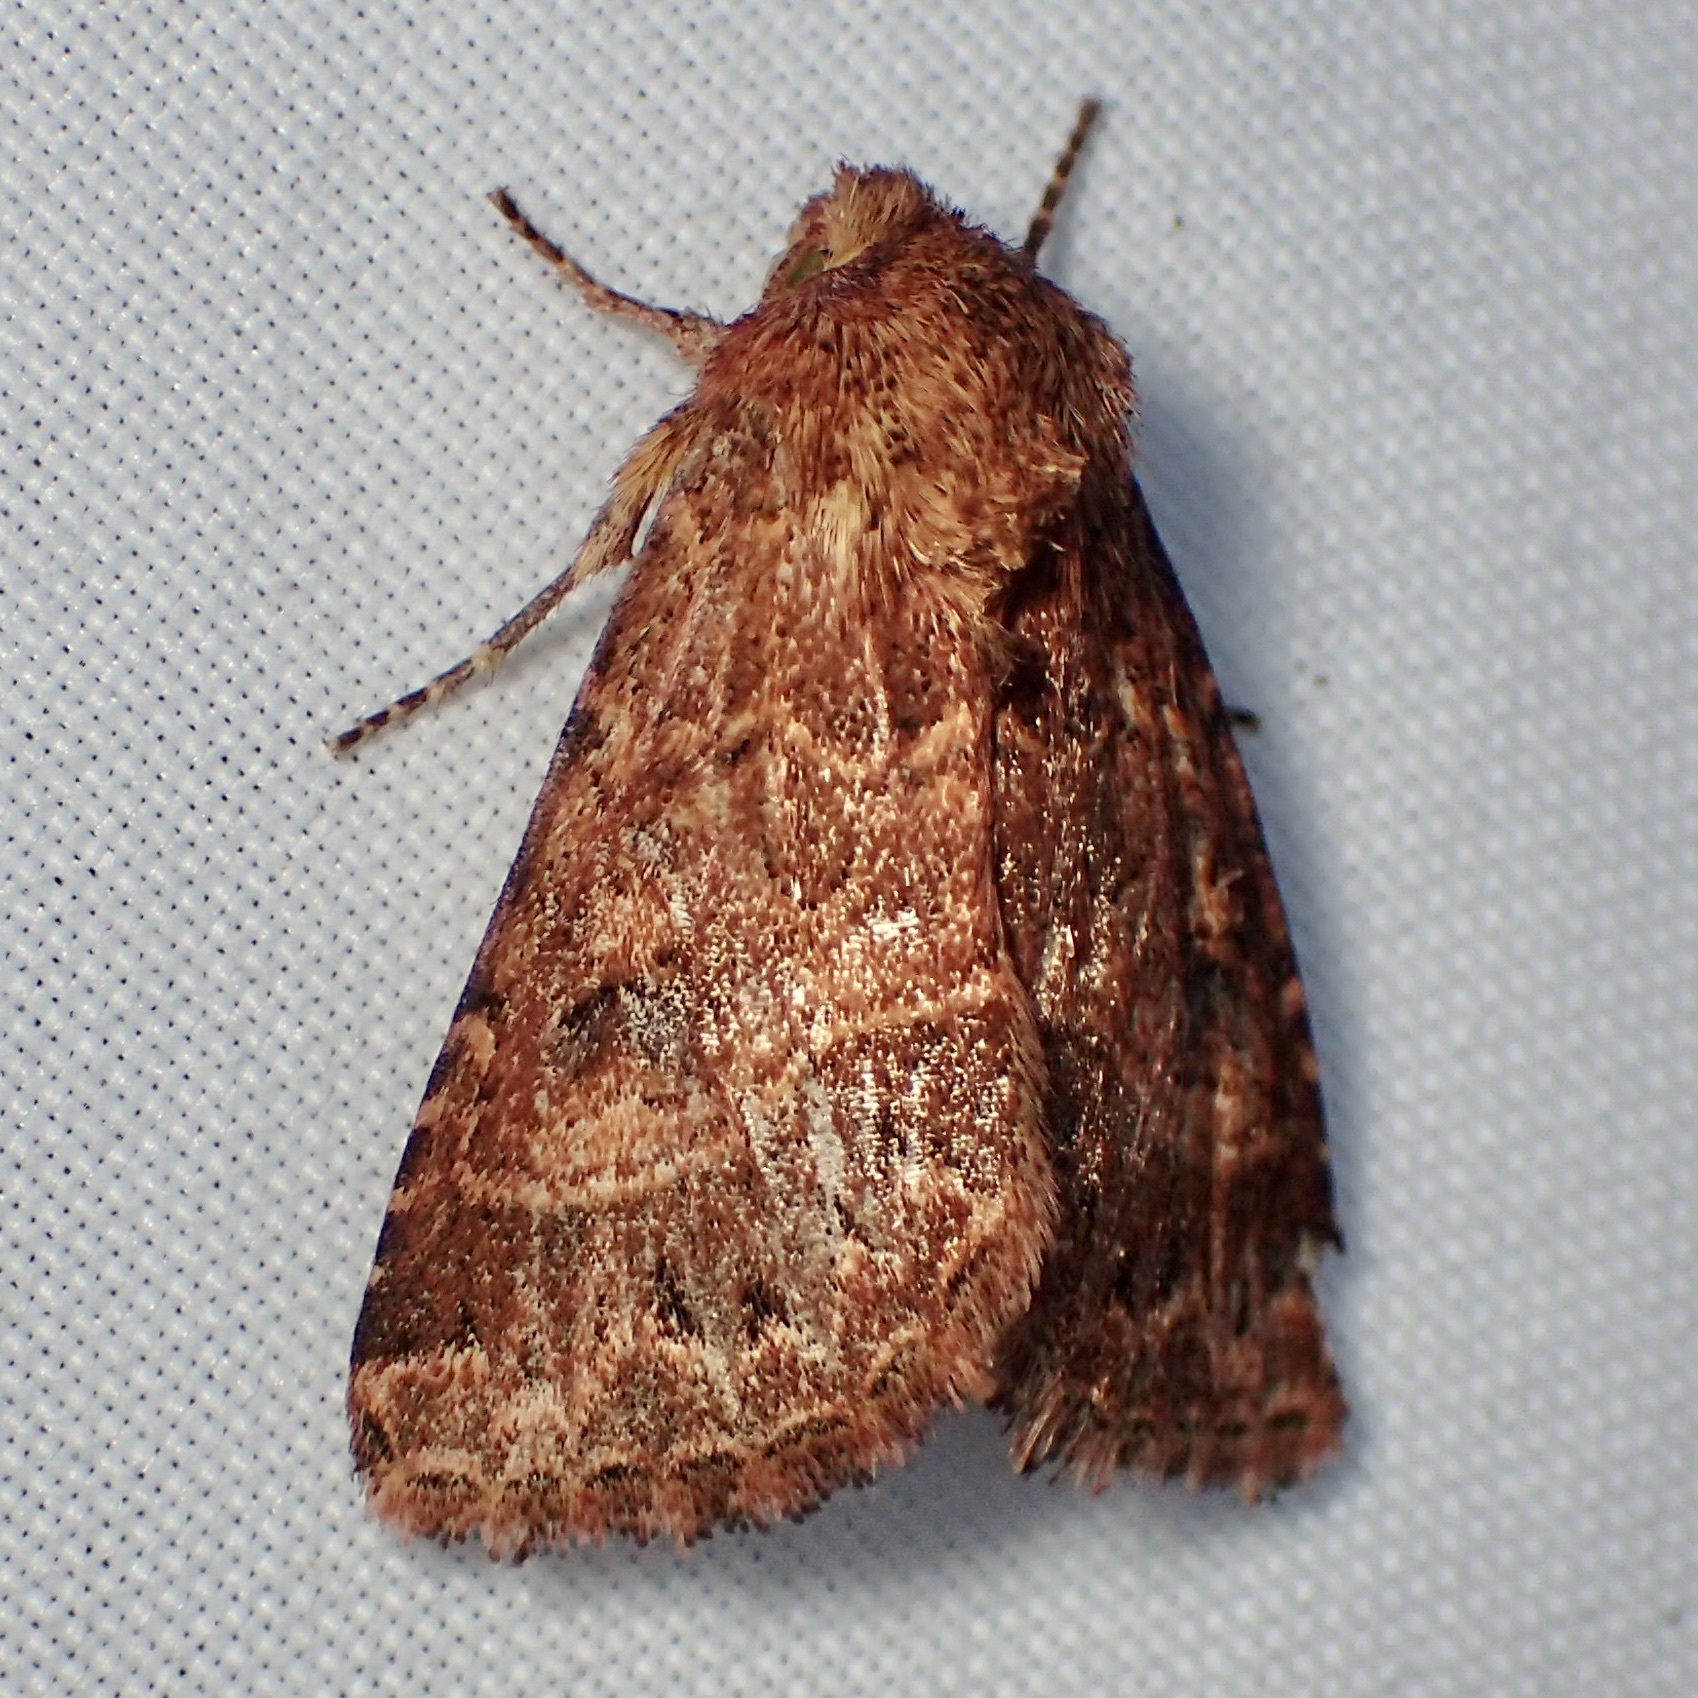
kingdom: Animalia
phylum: Arthropoda
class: Insecta
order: Lepidoptera
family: Noctuidae
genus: Schinia
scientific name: Schinia mexicana
